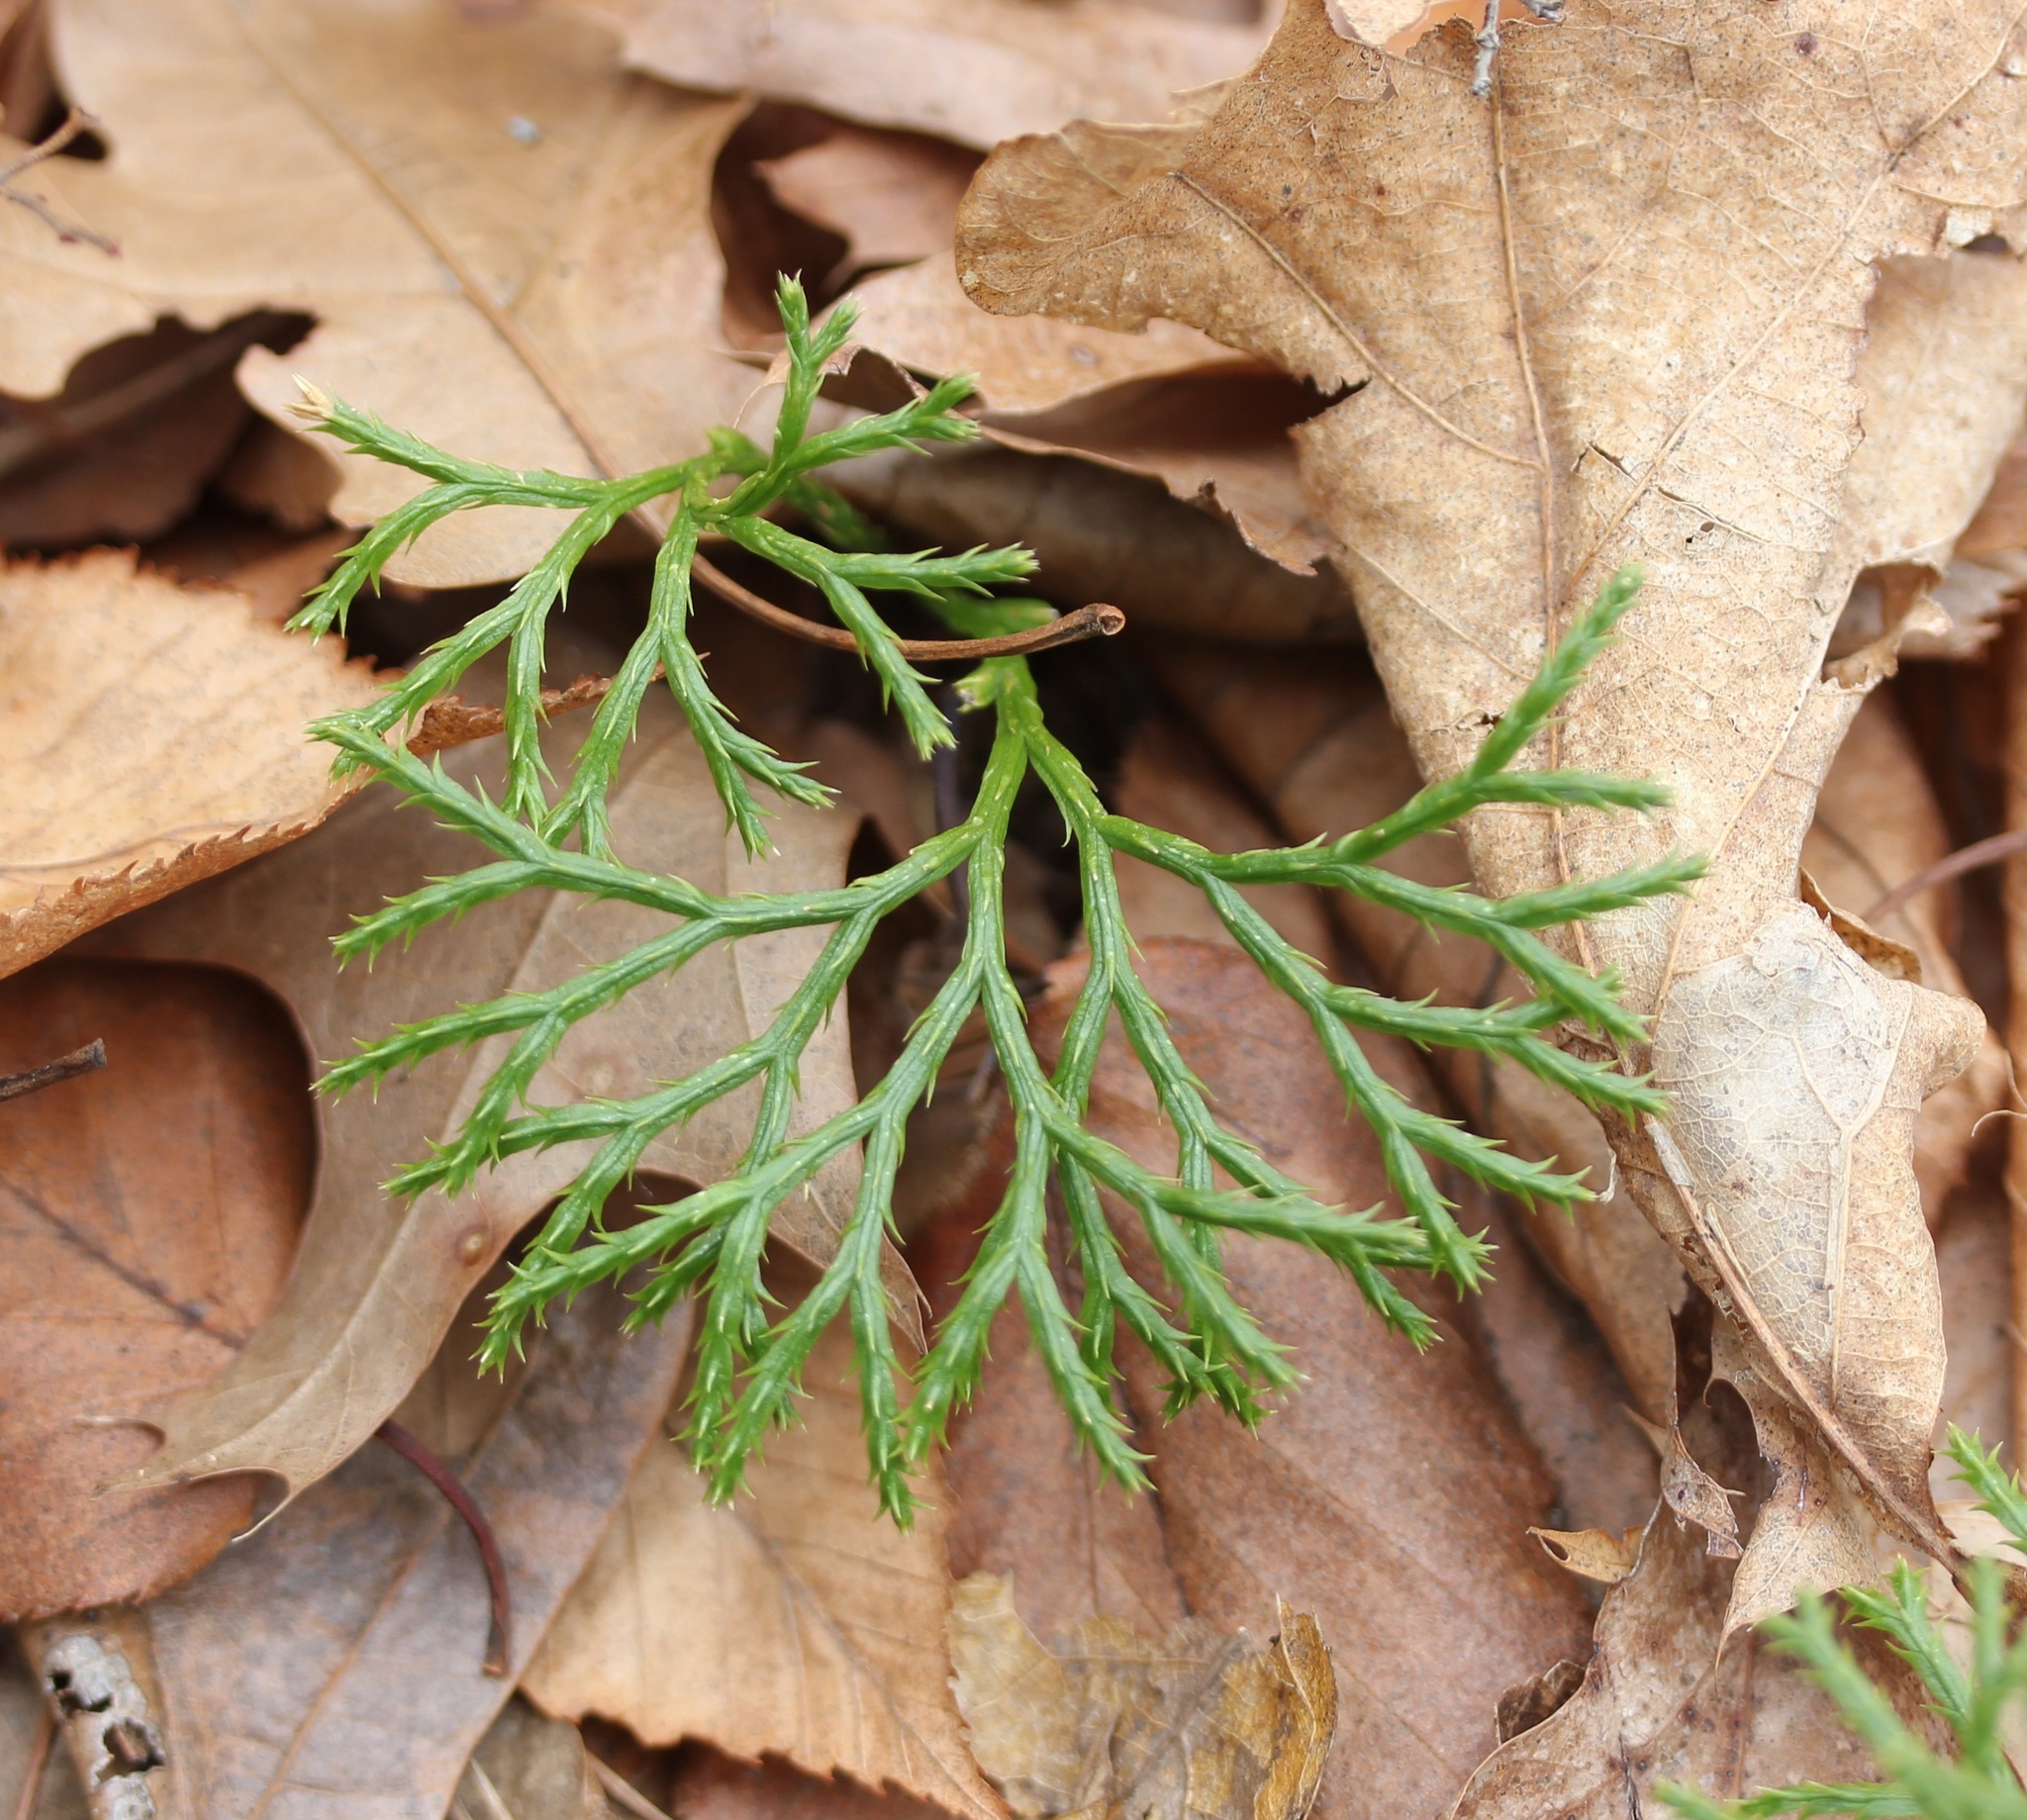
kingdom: Plantae
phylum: Tracheophyta
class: Lycopodiopsida
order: Lycopodiales
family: Lycopodiaceae
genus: Diphasiastrum
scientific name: Diphasiastrum digitatum
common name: Southern running-pine
